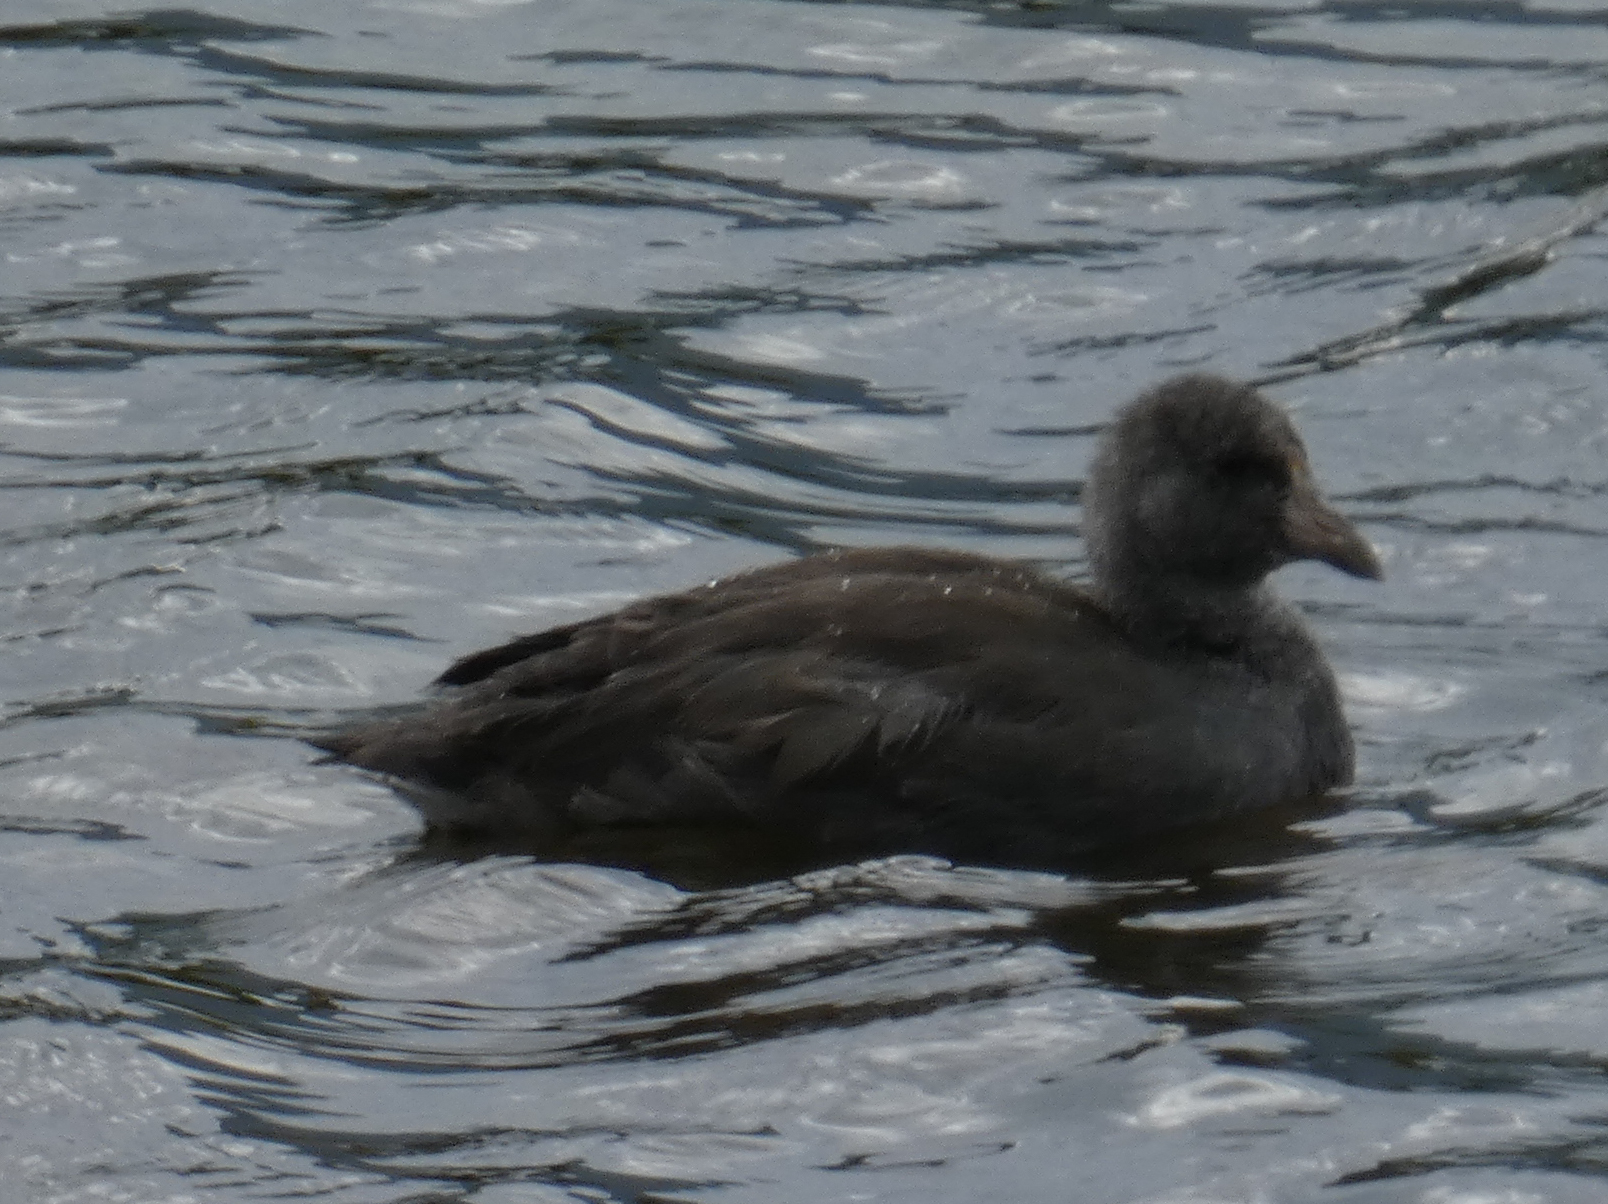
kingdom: Animalia
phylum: Chordata
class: Aves
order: Gruiformes
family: Rallidae
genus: Fulica
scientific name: Fulica americana
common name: American coot
